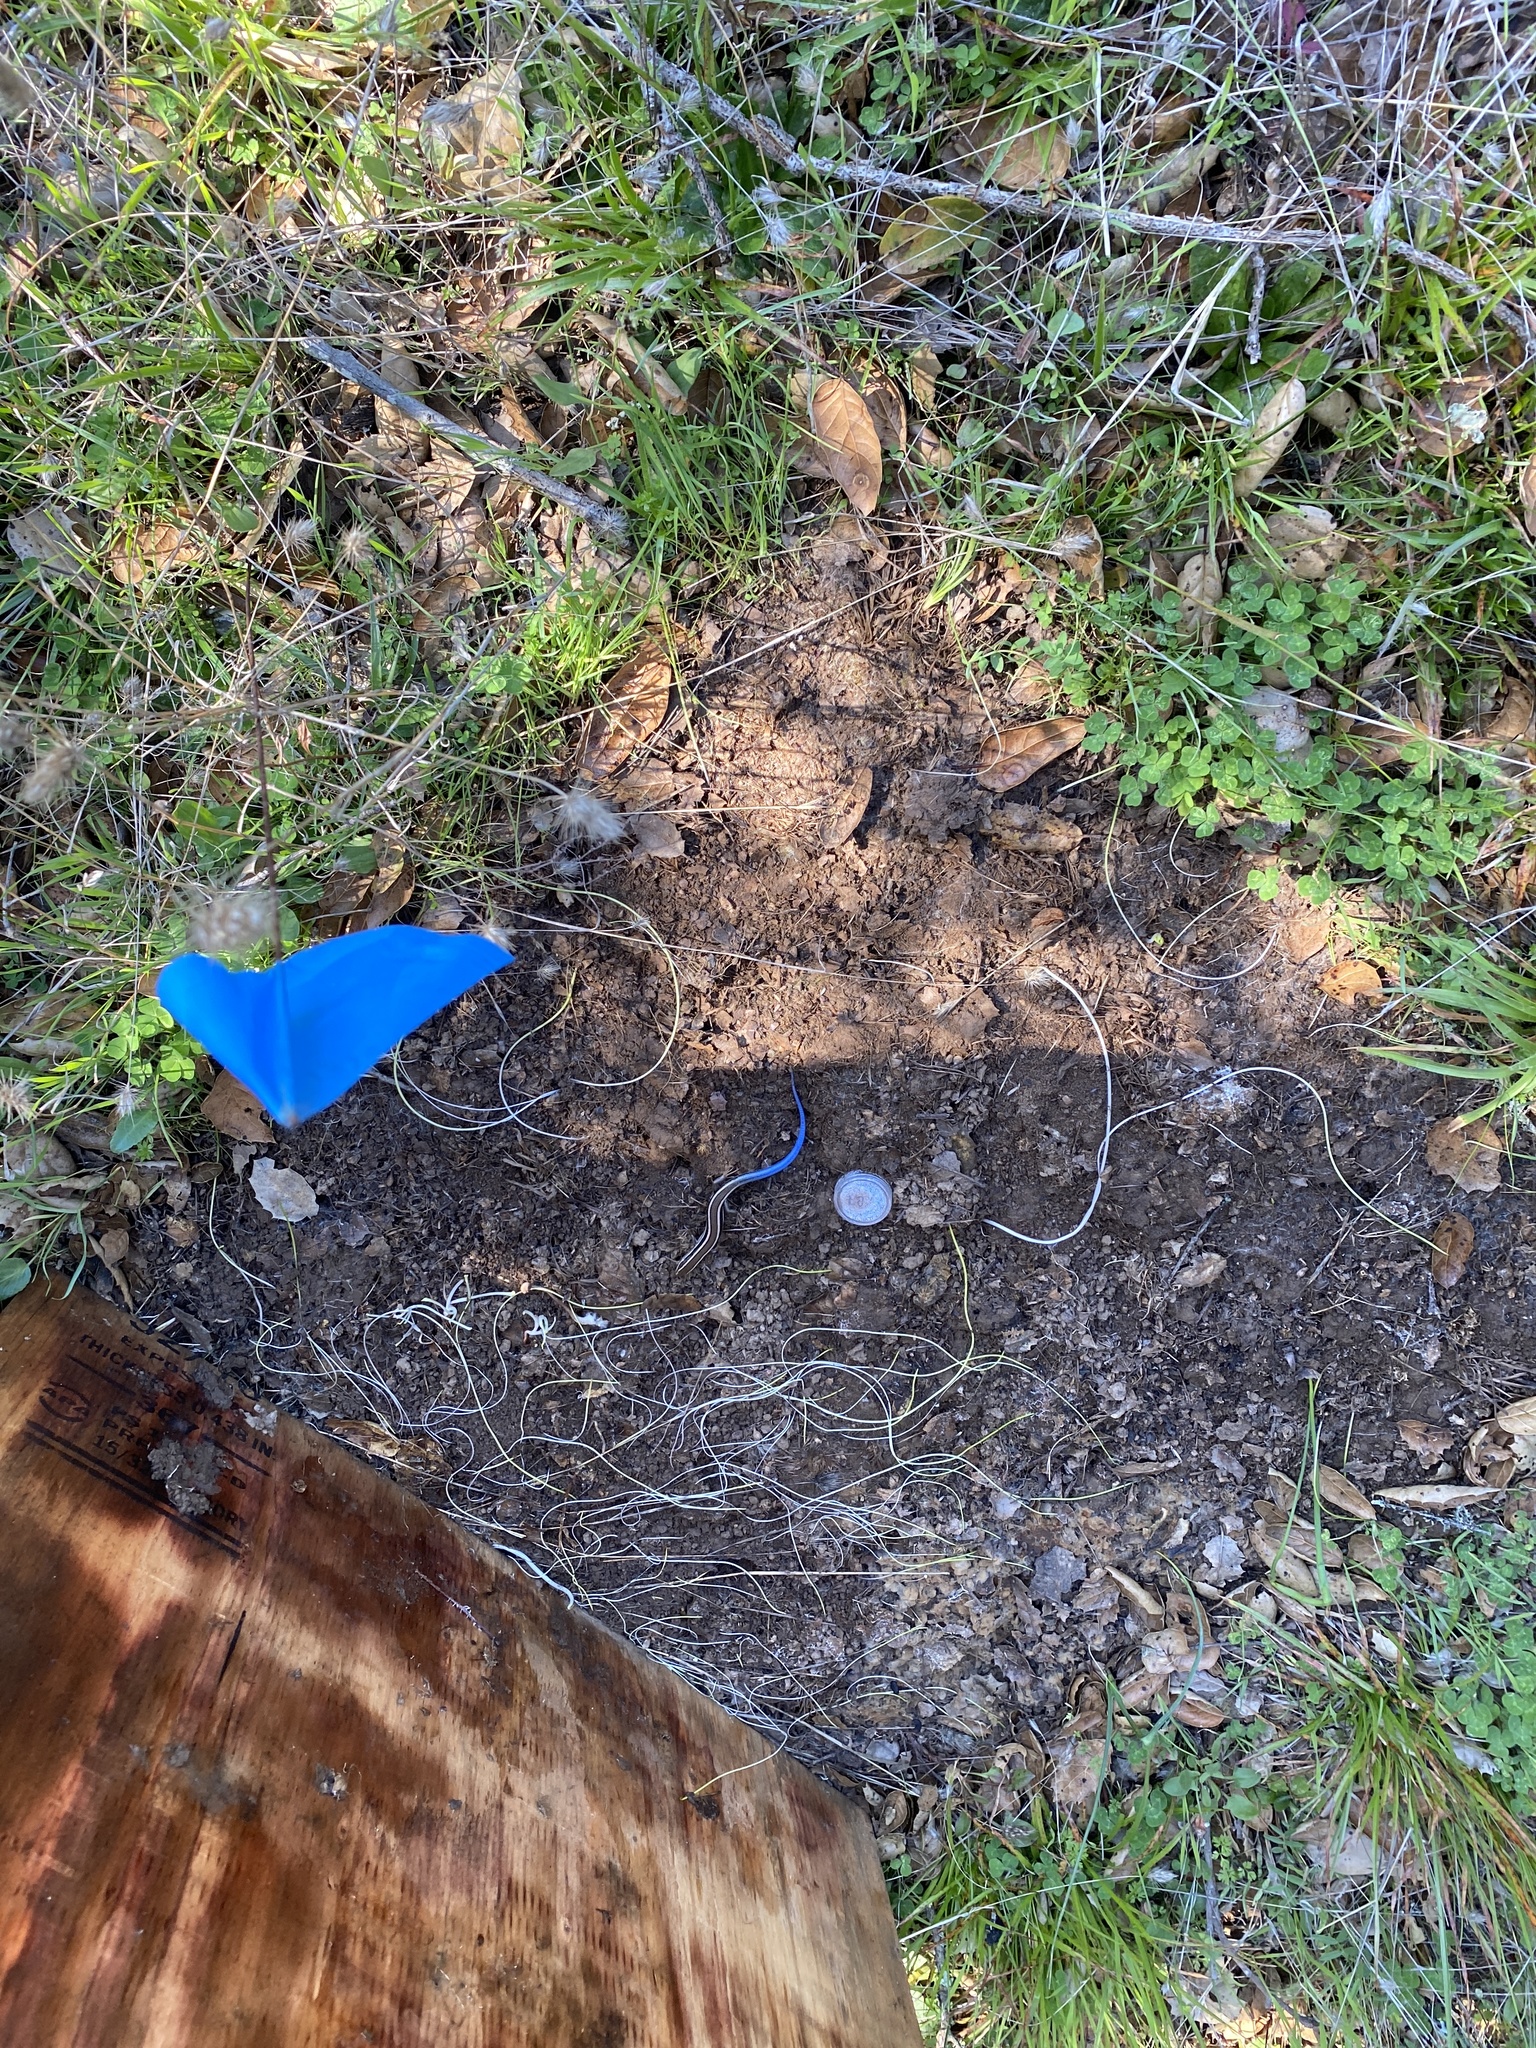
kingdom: Animalia
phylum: Chordata
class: Squamata
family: Scincidae
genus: Plestiodon
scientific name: Plestiodon skiltonianus
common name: Coronado island skink [interparietalis]
